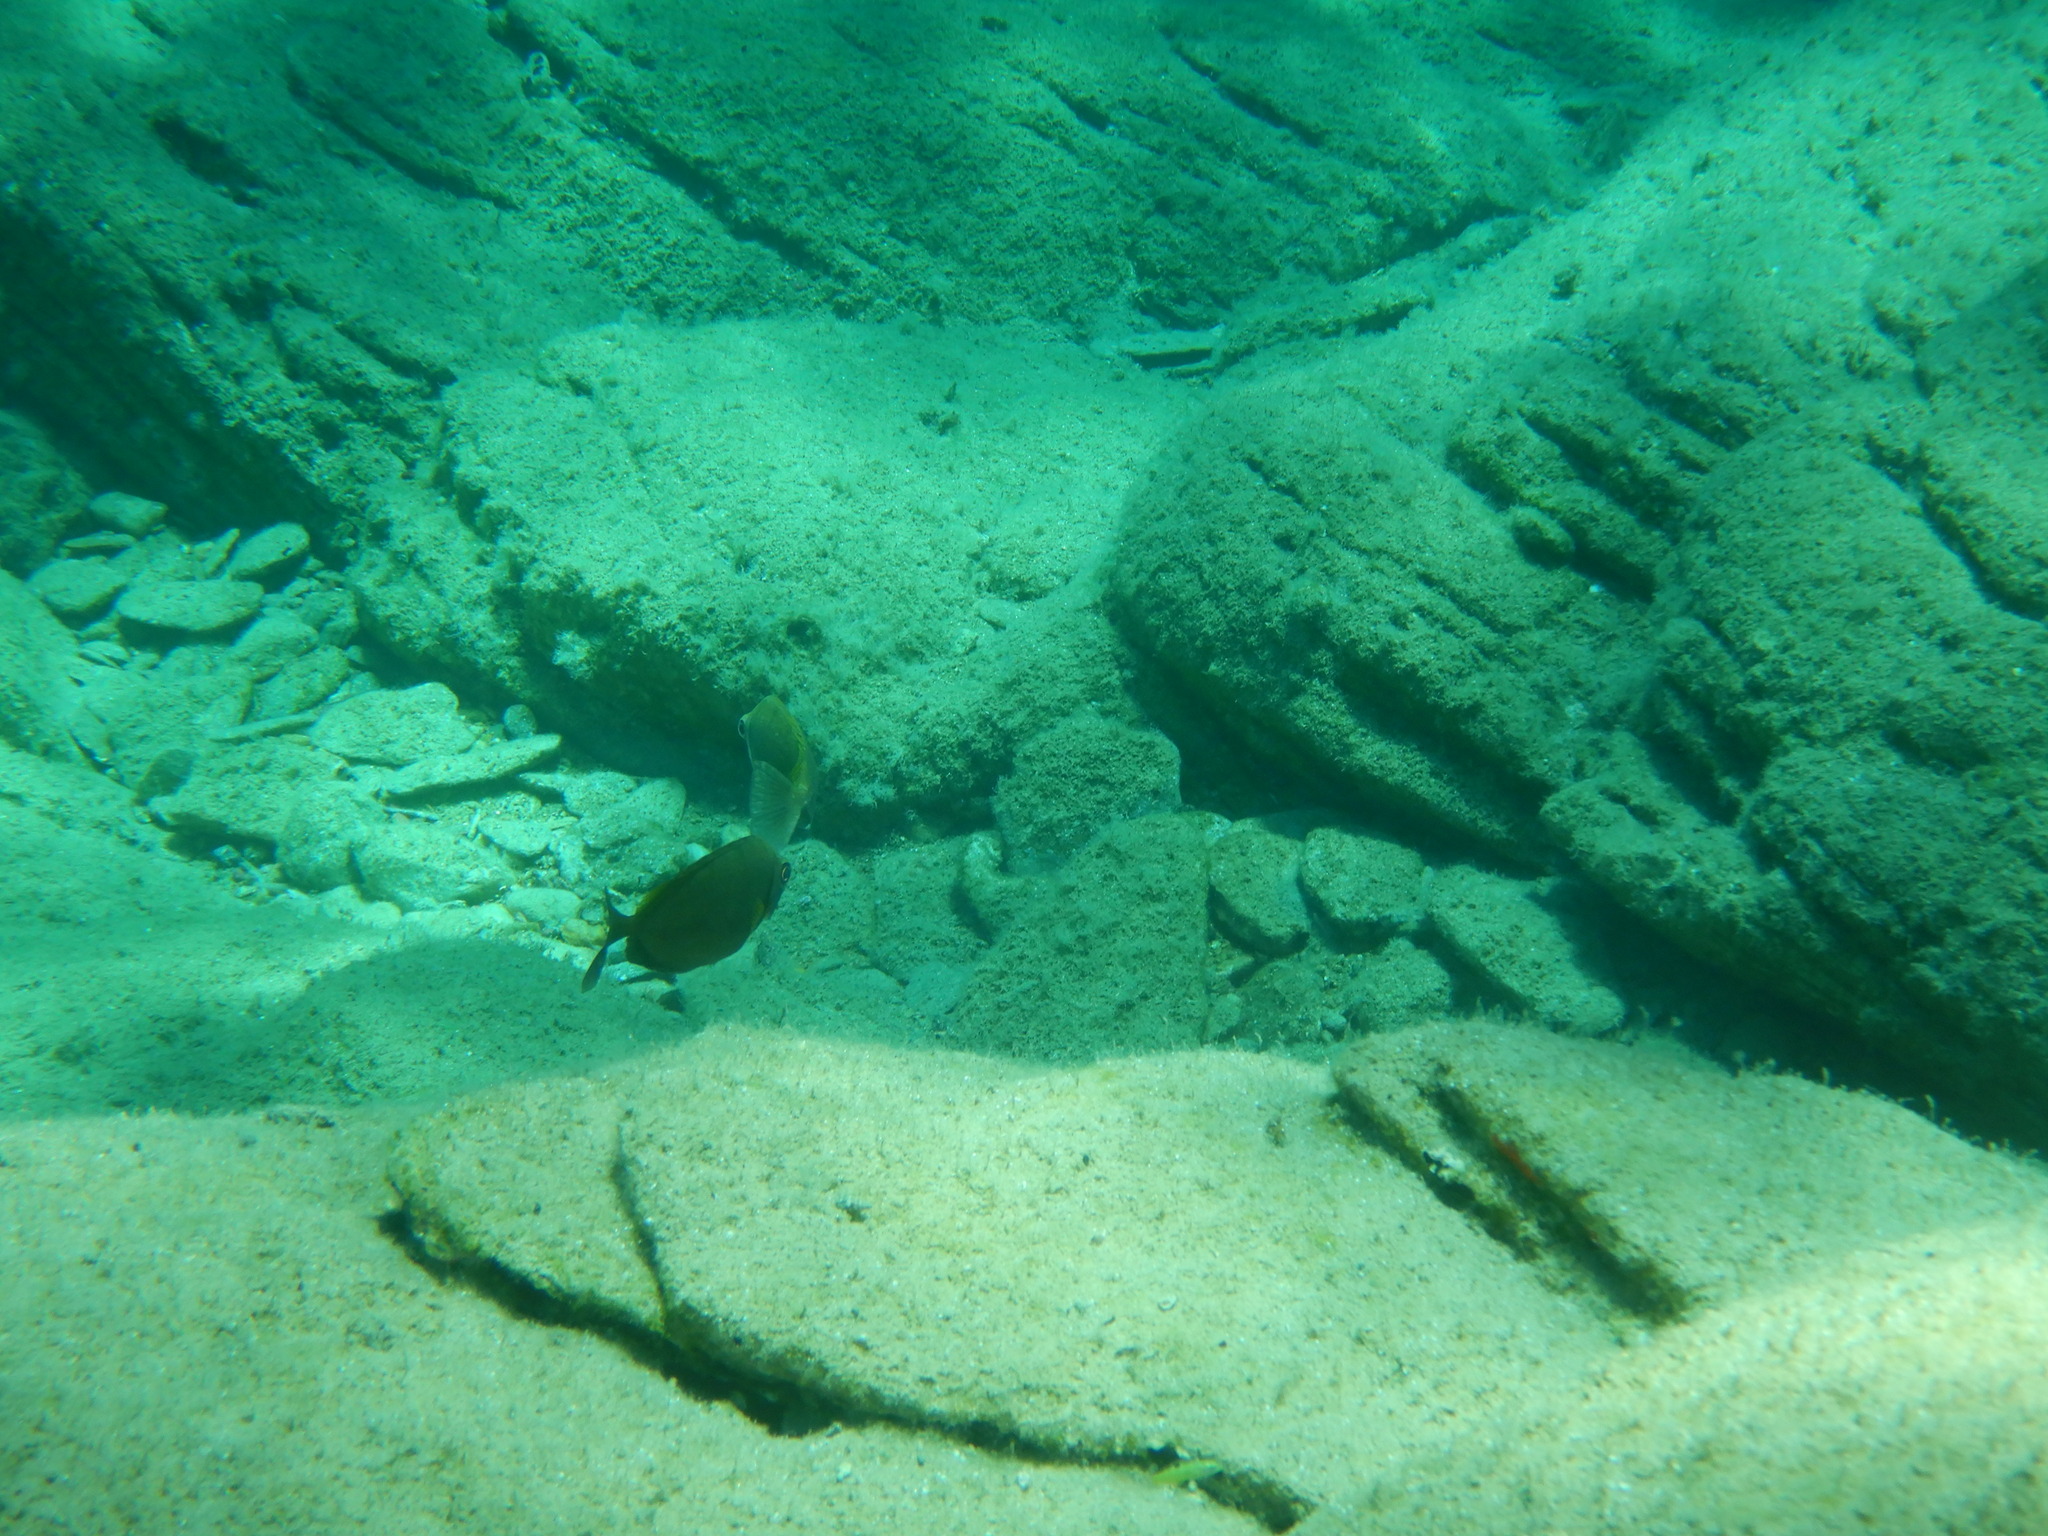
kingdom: Animalia
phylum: Chordata
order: Perciformes
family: Siganidae
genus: Siganus
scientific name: Siganus luridus
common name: Dusky spinefoot
